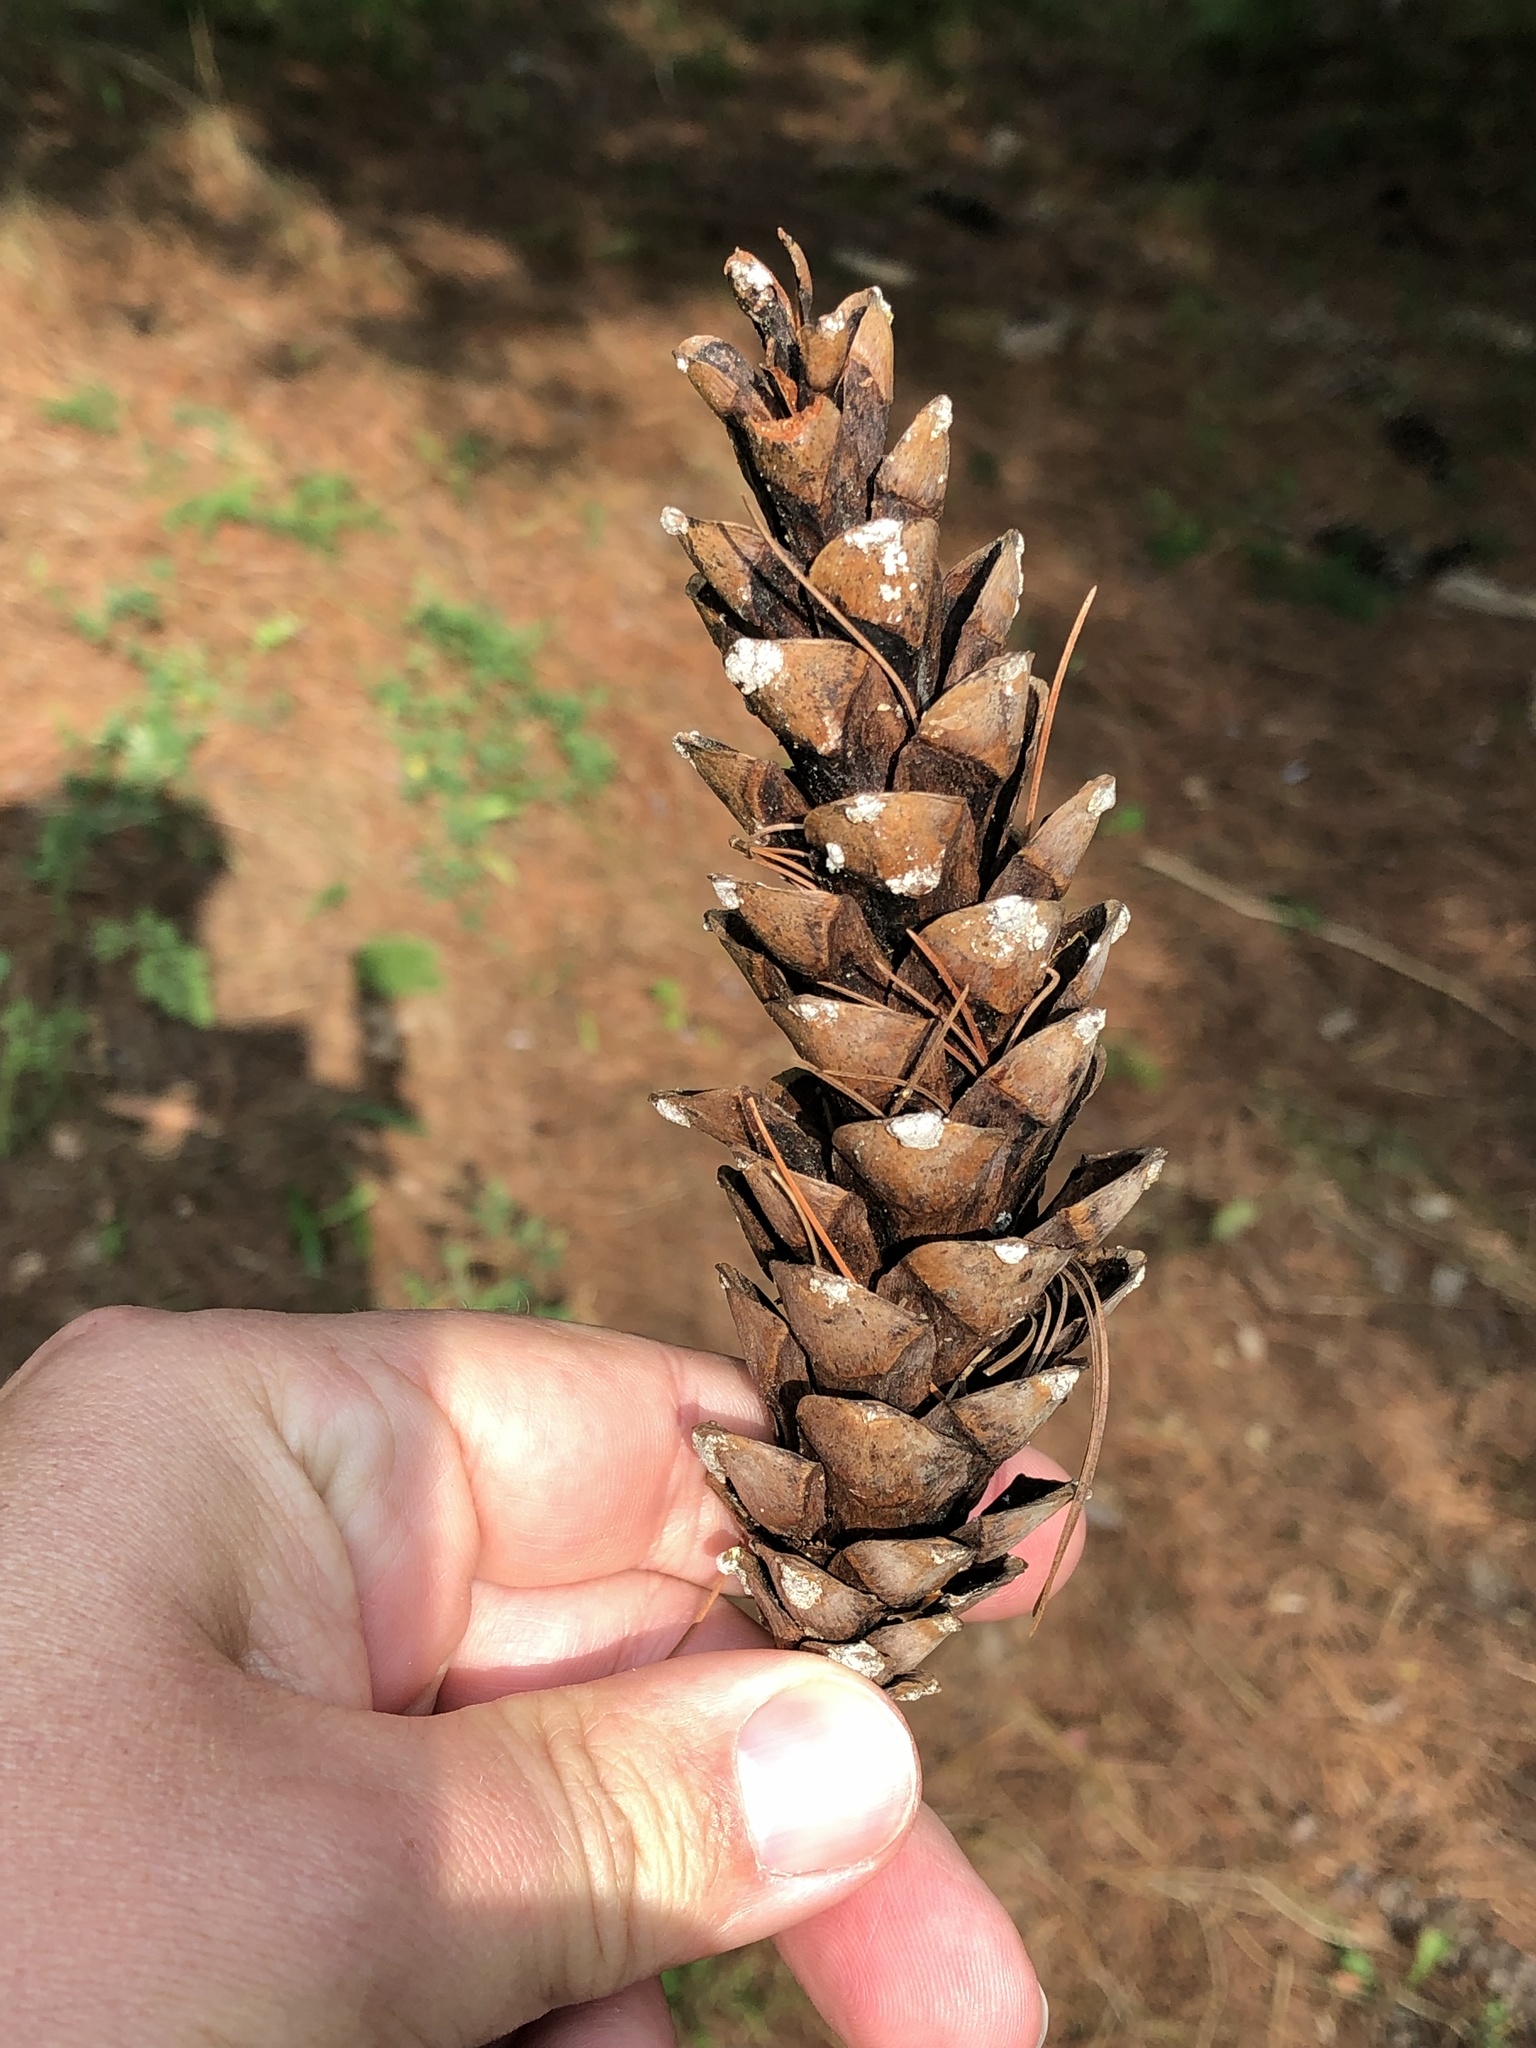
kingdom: Plantae
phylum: Tracheophyta
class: Pinopsida
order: Pinales
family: Pinaceae
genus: Pinus
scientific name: Pinus strobus
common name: Weymouth pine
